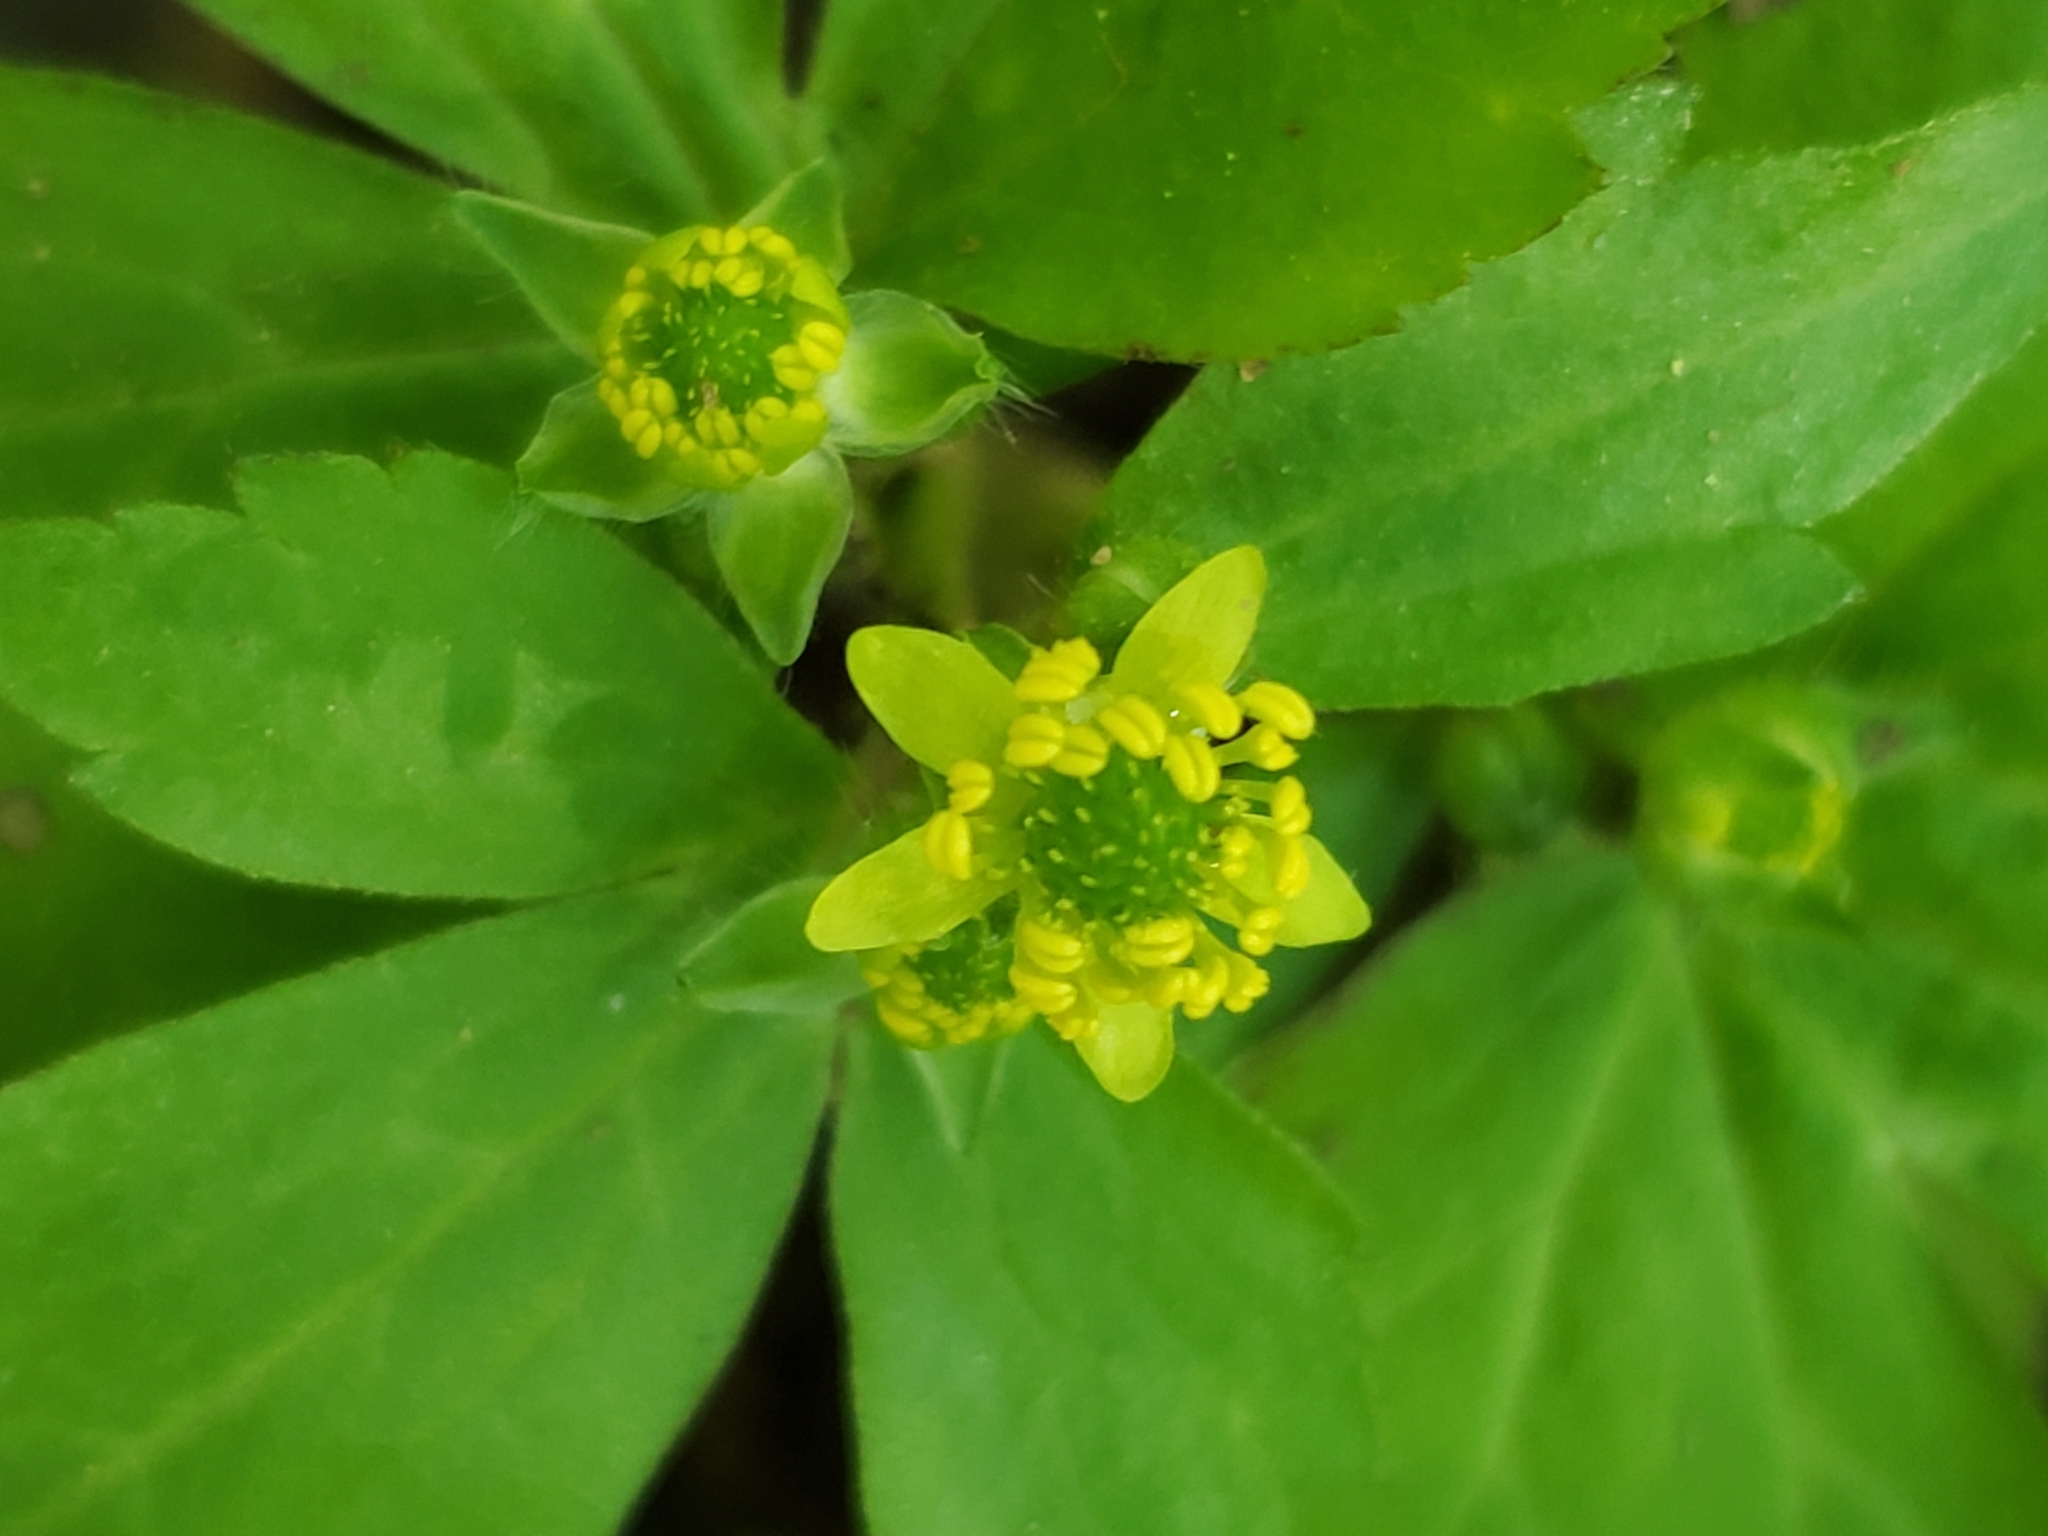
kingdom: Plantae
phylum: Tracheophyta
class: Magnoliopsida
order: Ranunculales
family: Ranunculaceae
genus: Ranunculus
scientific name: Ranunculus recurvatus
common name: Blisterwort
